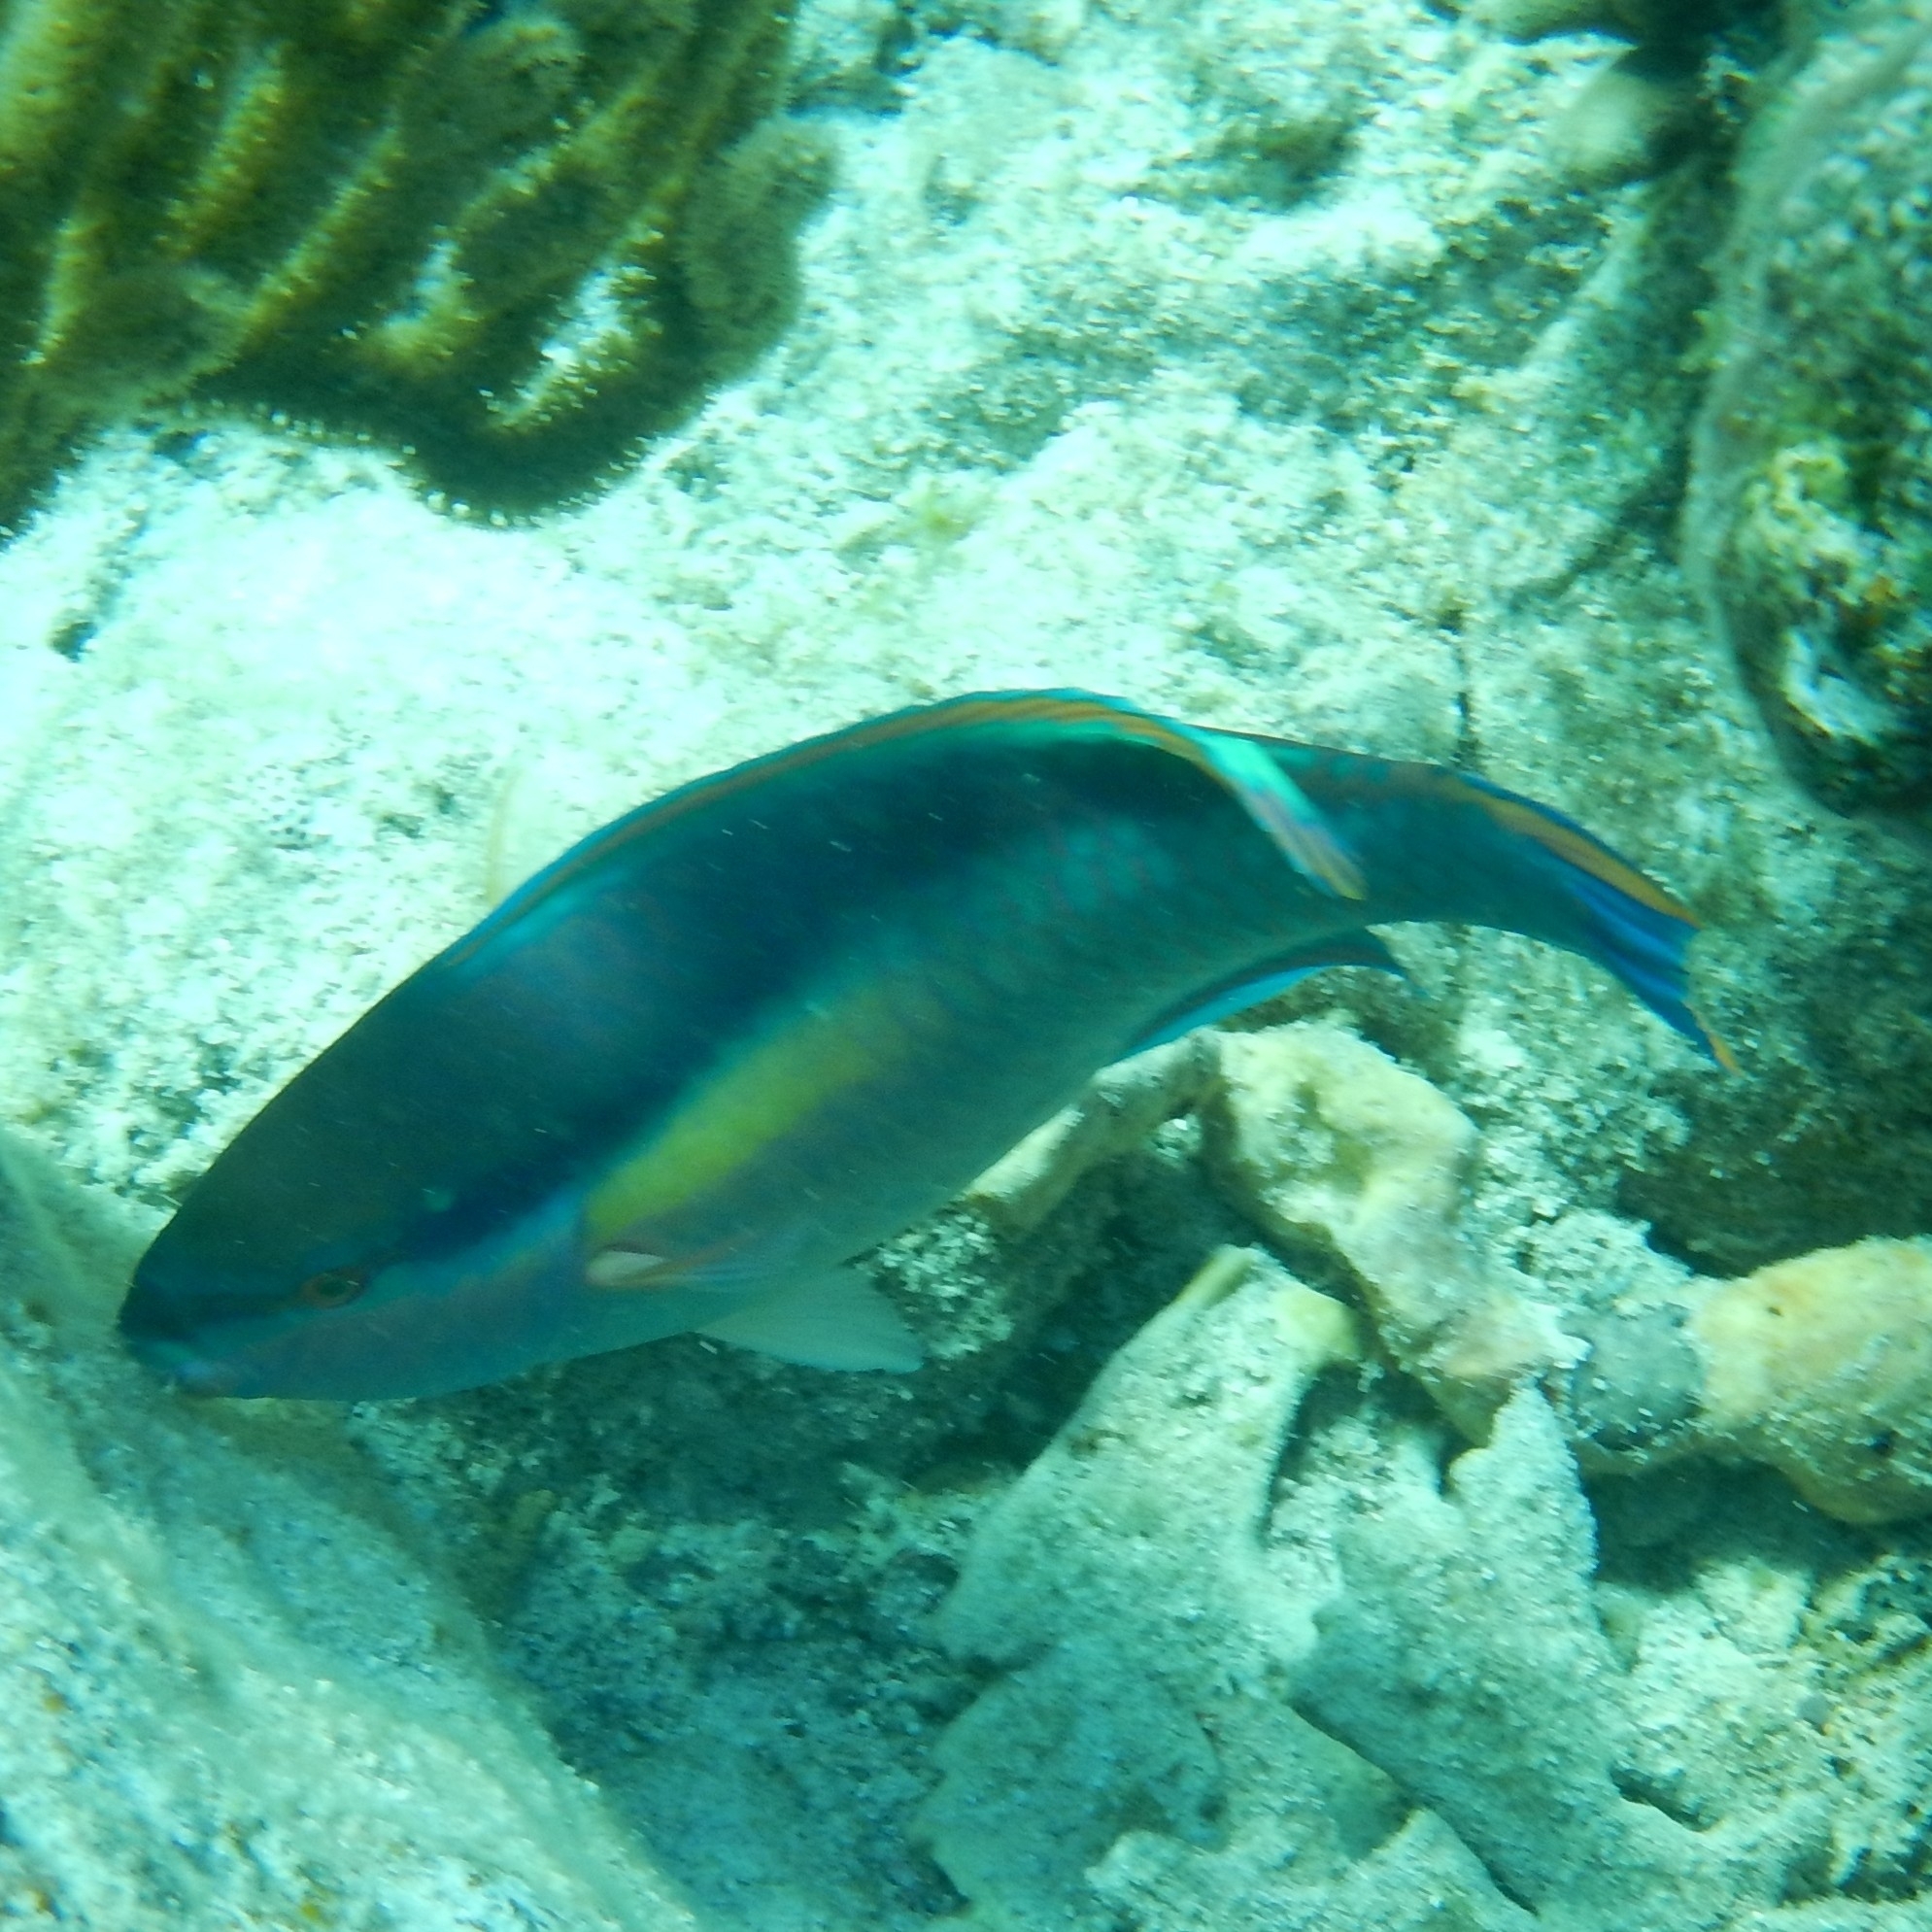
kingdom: Animalia
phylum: Chordata
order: Perciformes
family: Scaridae
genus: Scarus
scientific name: Scarus taeniopterus
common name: Princess parrotfish
